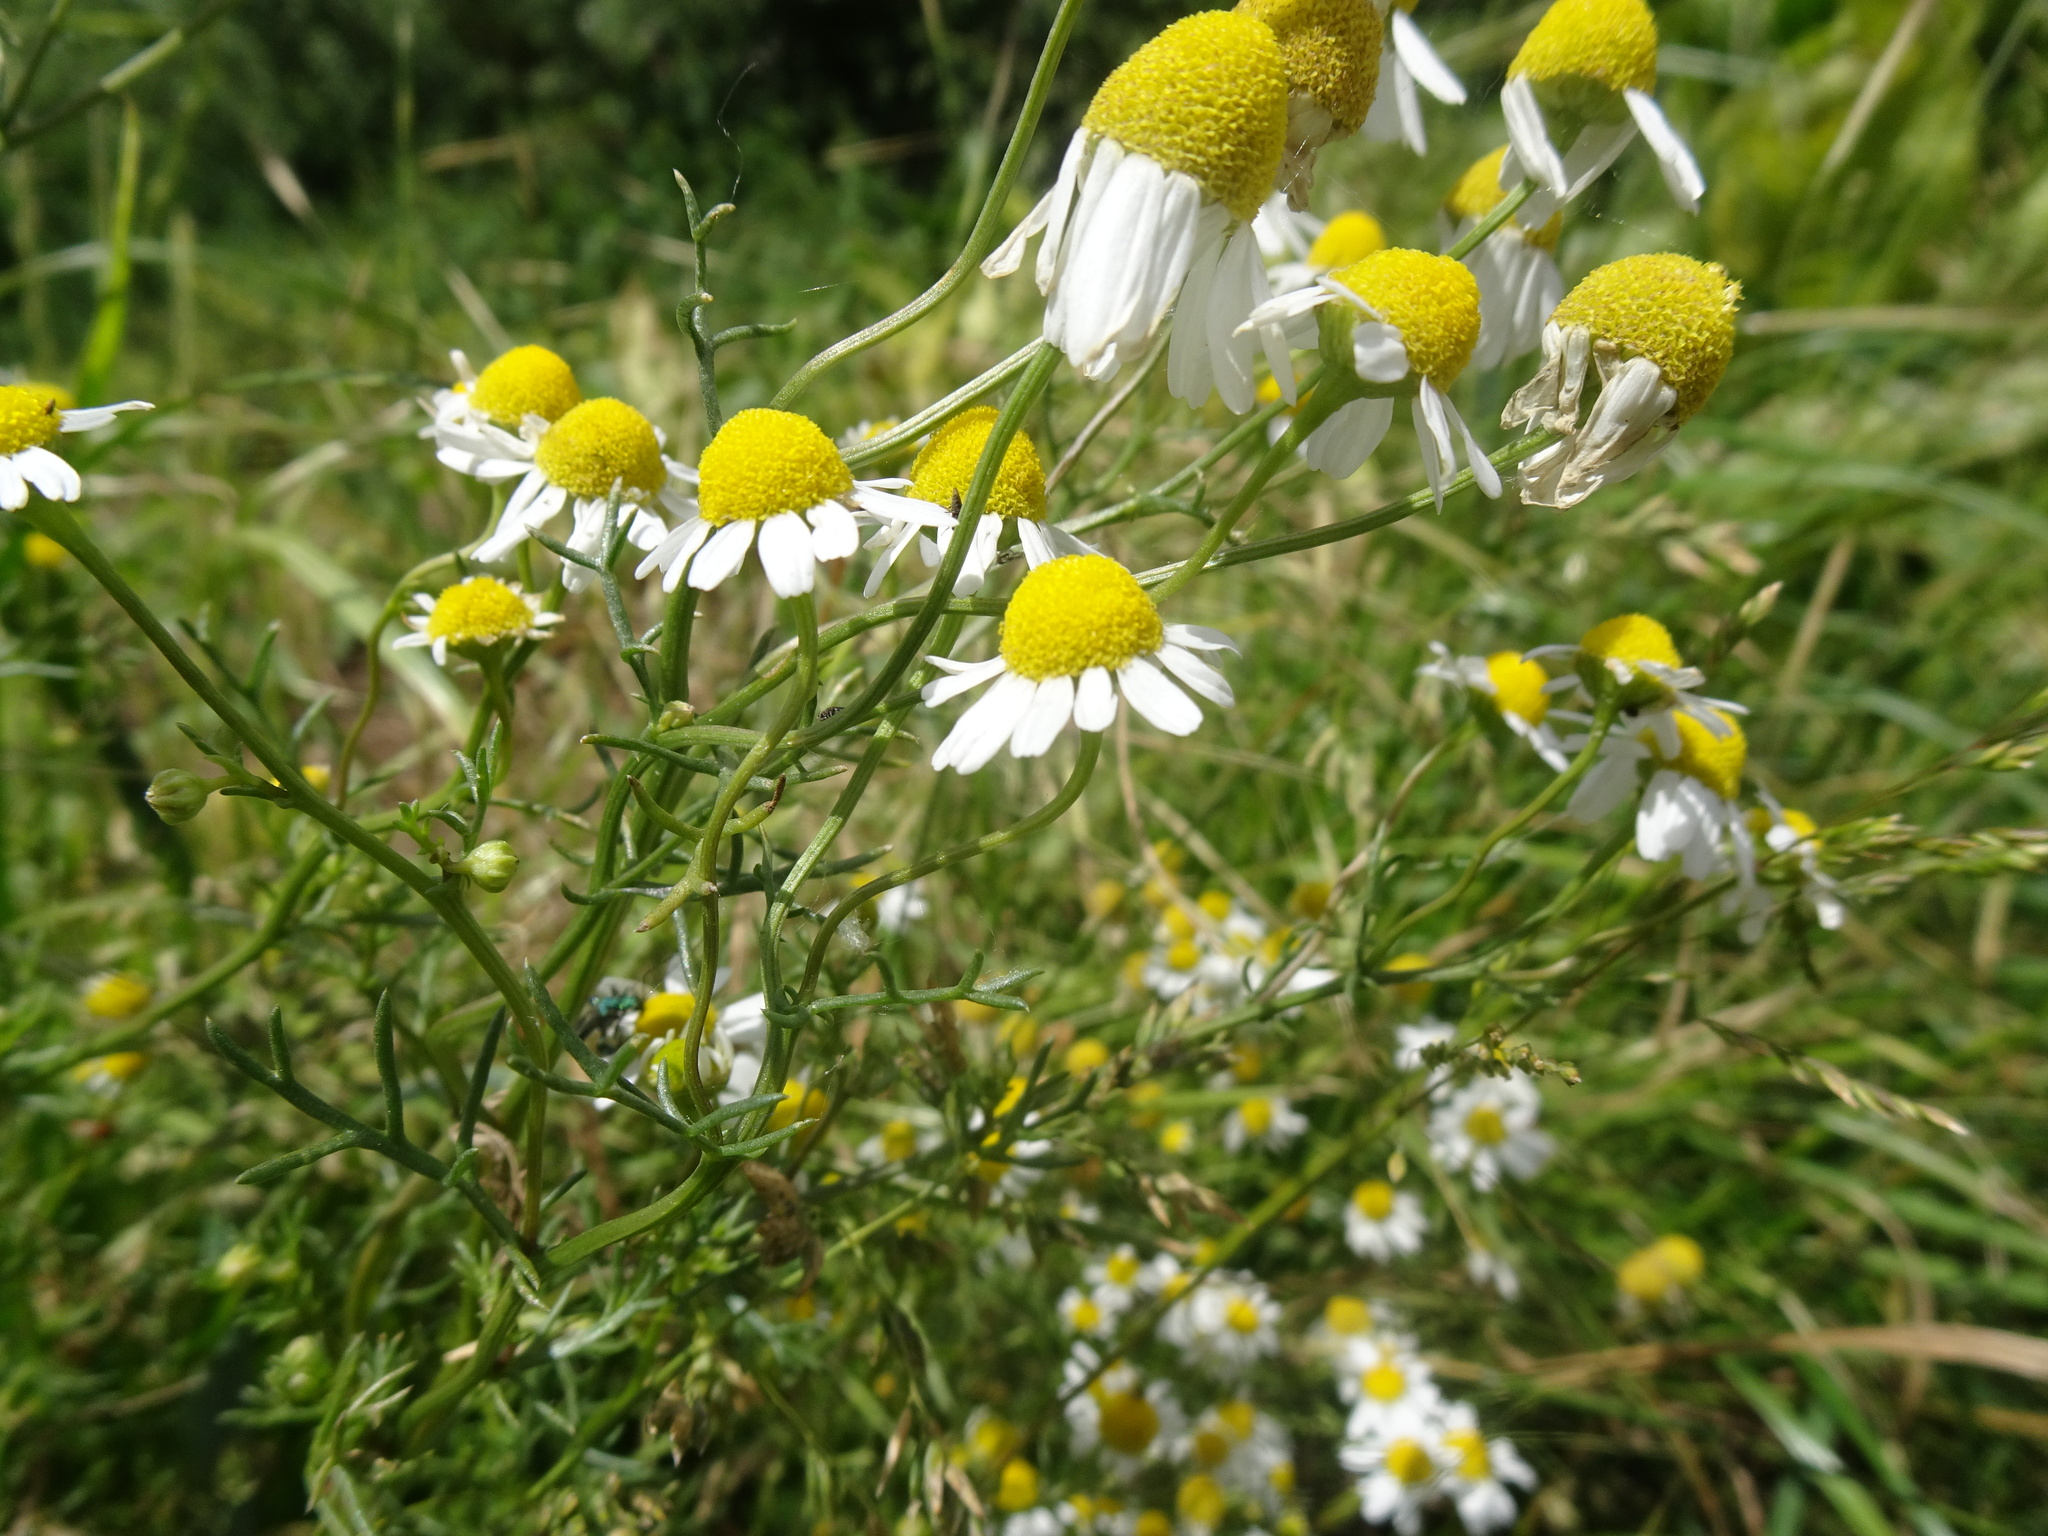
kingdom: Plantae
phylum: Tracheophyta
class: Magnoliopsida
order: Asterales
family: Asteraceae
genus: Matricaria
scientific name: Matricaria chamomilla
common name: Scented mayweed
